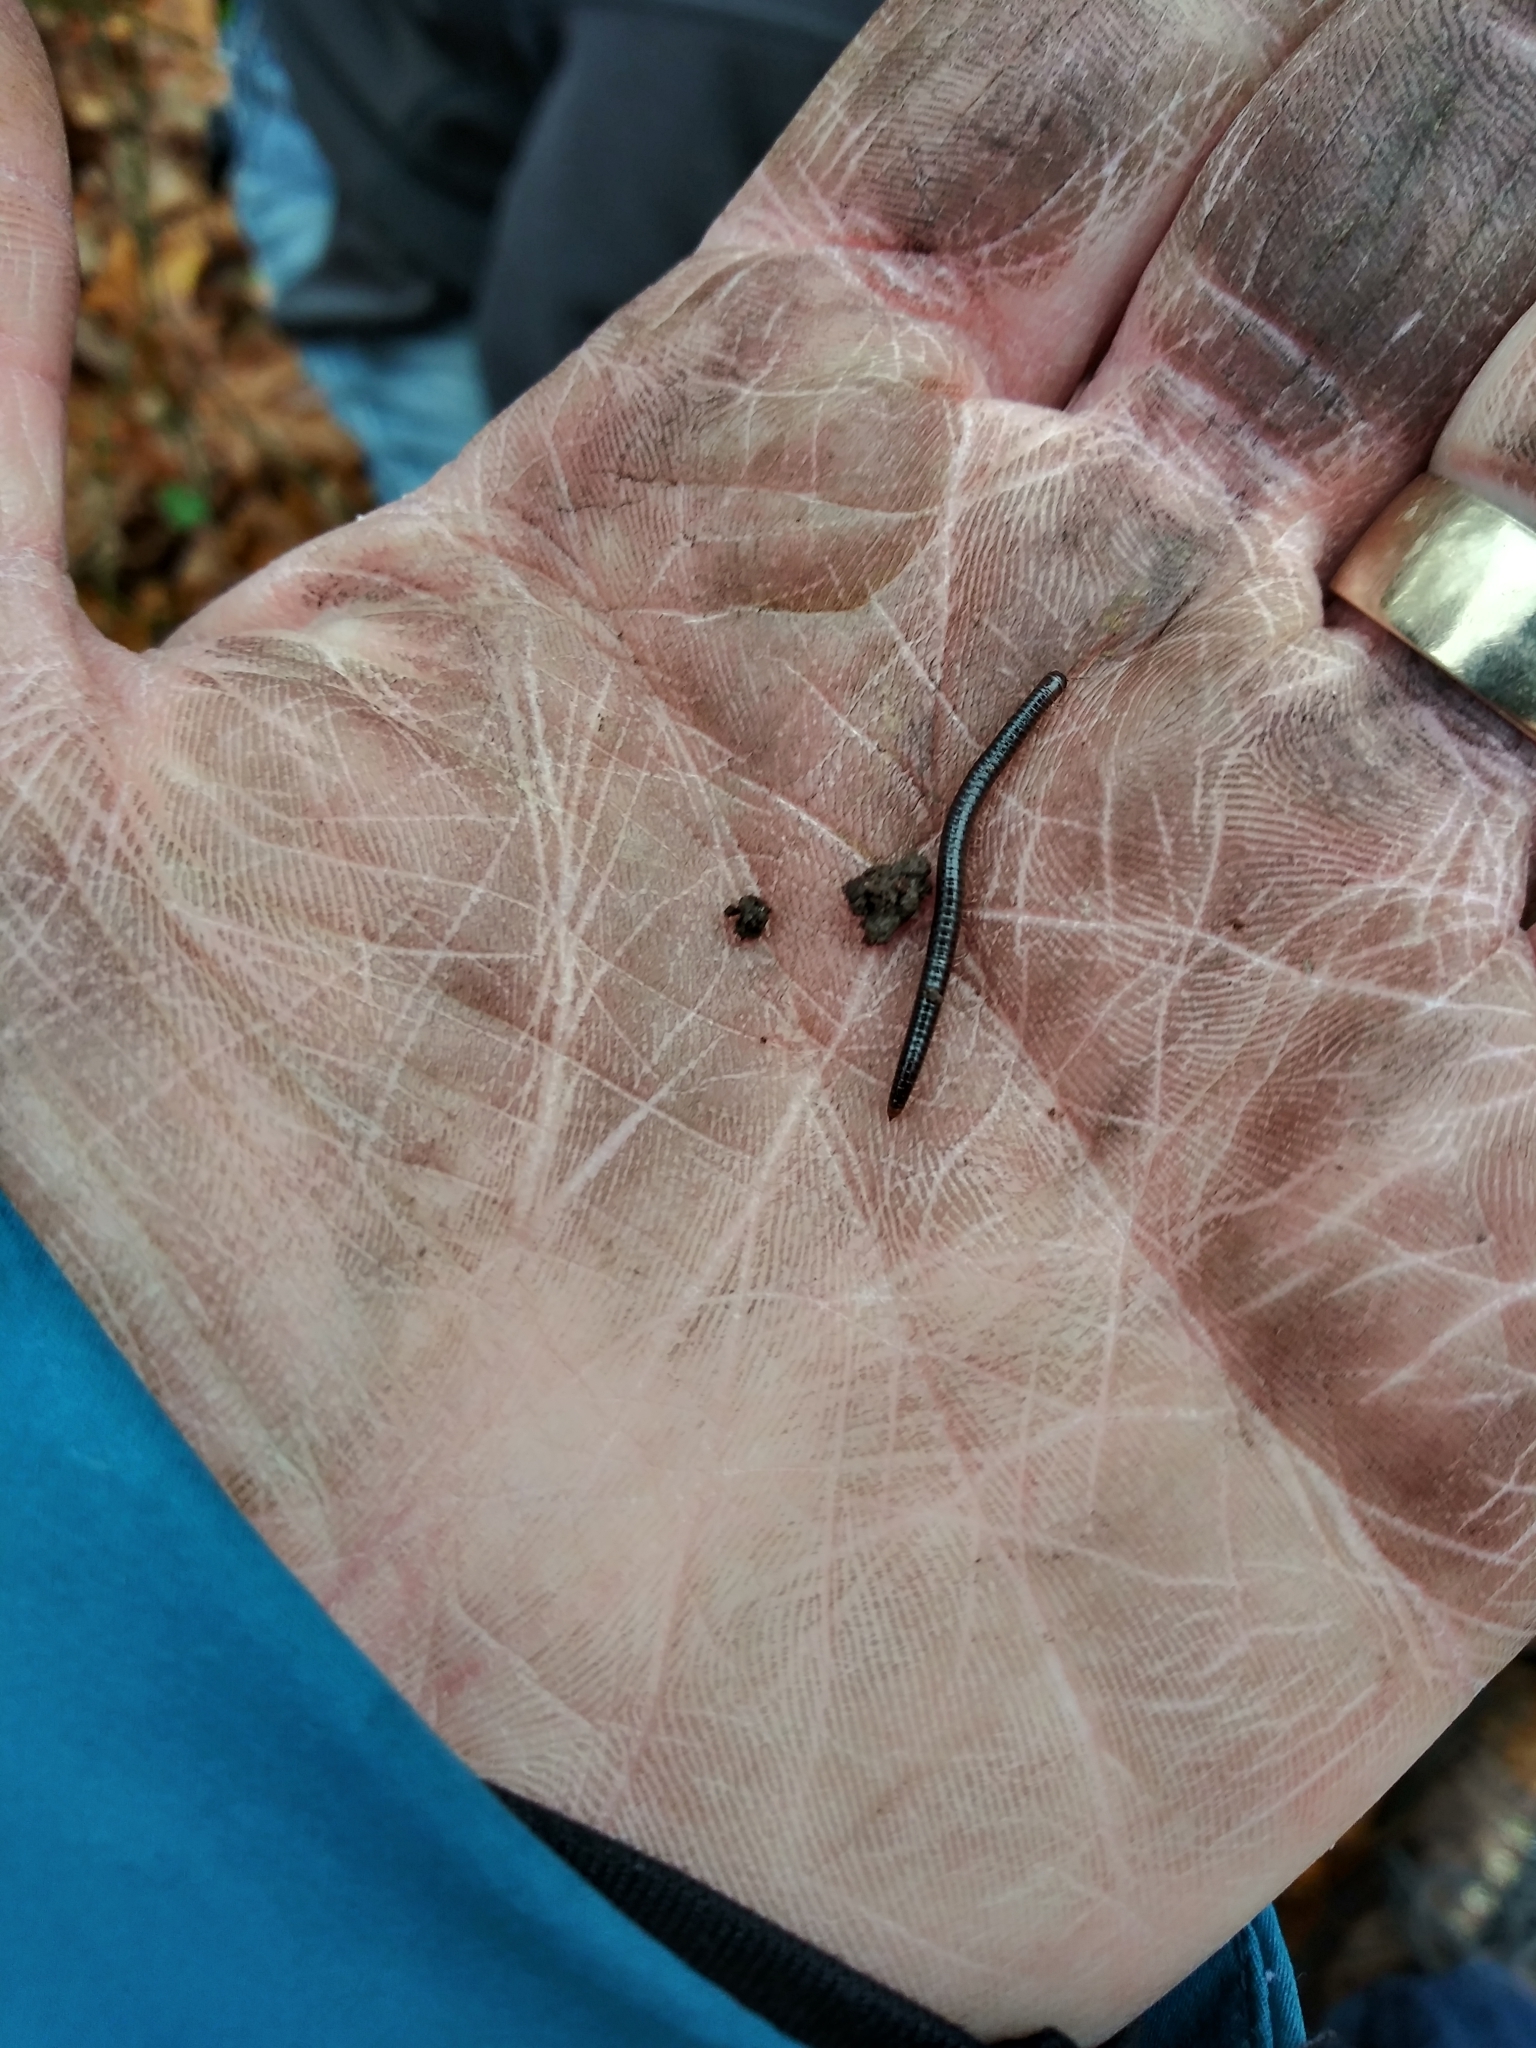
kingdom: Animalia
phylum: Arthropoda
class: Diplopoda
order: Julida
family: Julidae
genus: Ophyiulus
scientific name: Ophyiulus pilosus
